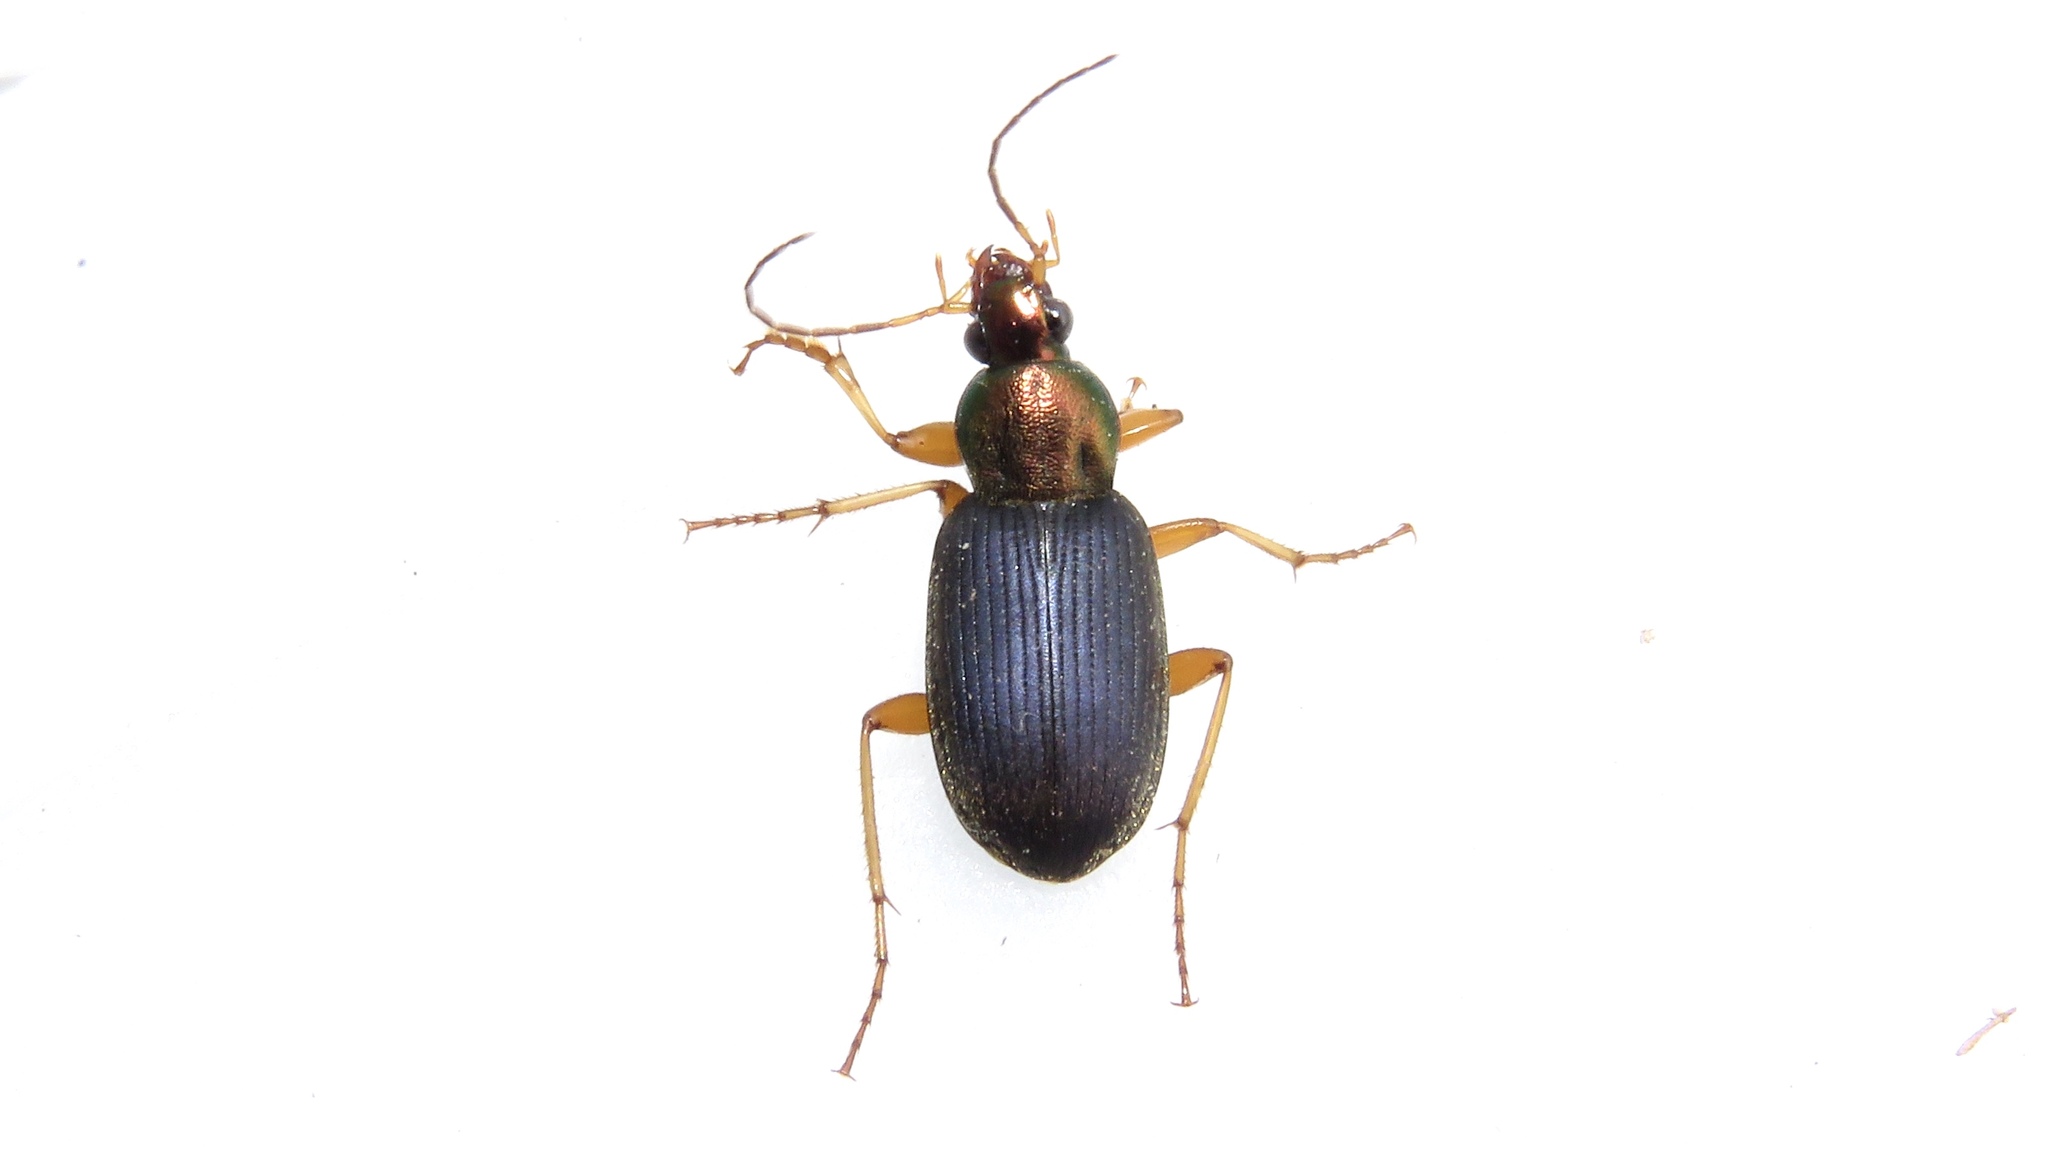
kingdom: Animalia
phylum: Arthropoda
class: Insecta
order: Coleoptera
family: Carabidae
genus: Chlaenius
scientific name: Chlaenius tricolor
